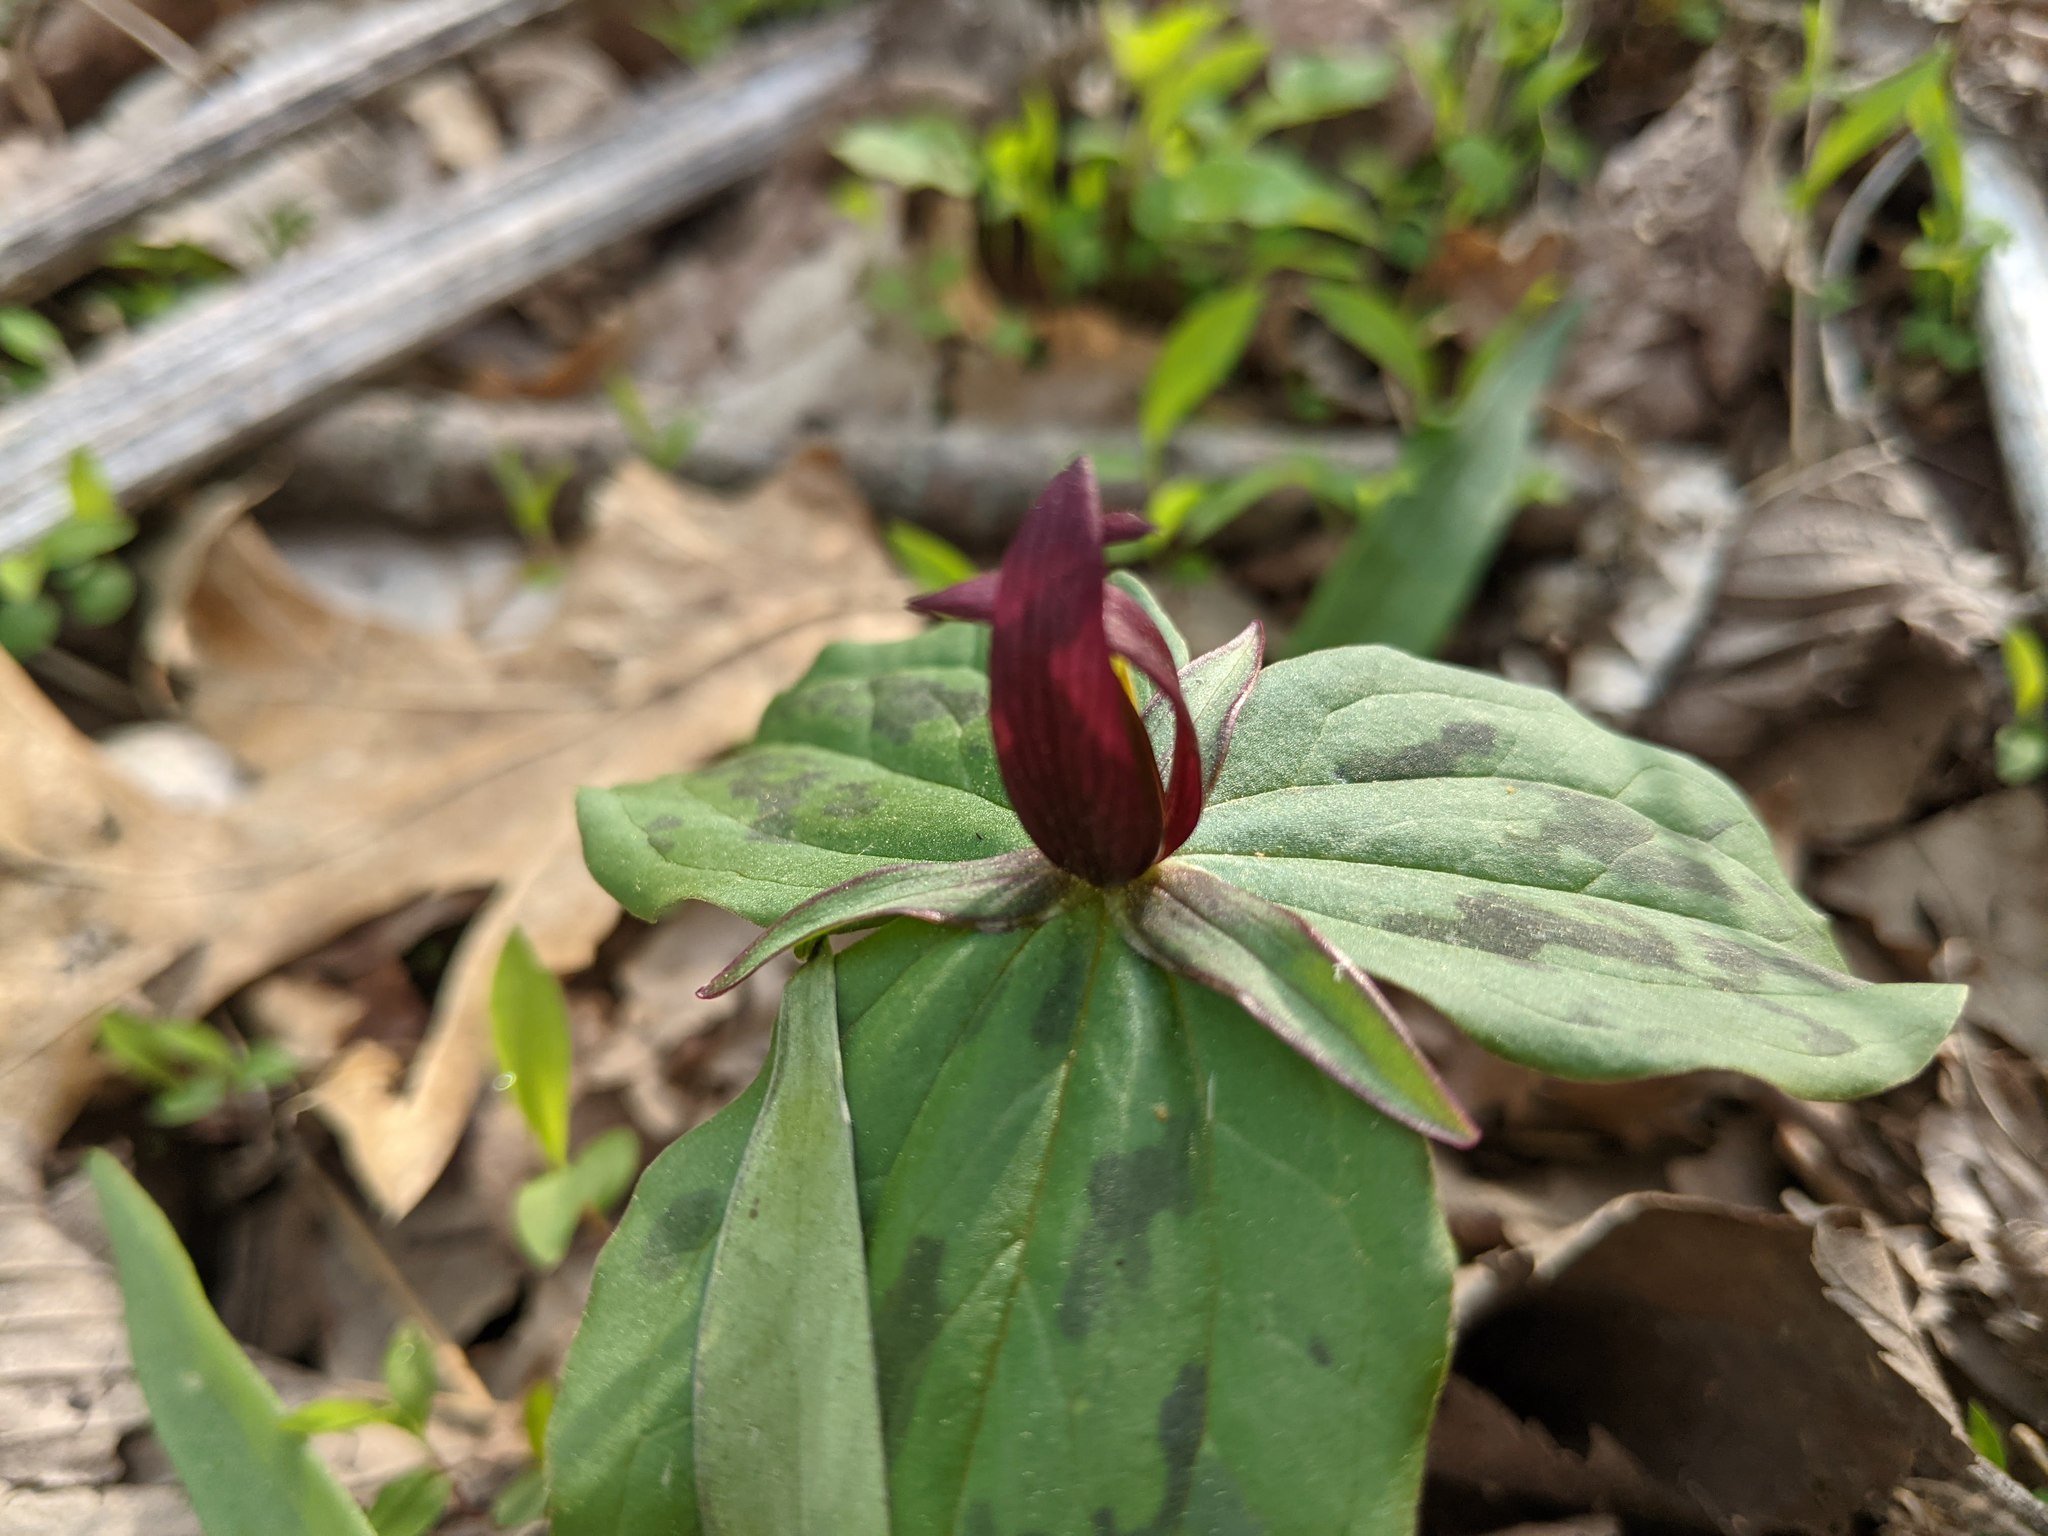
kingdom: Plantae
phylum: Tracheophyta
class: Liliopsida
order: Liliales
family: Melanthiaceae
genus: Trillium
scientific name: Trillium sessile
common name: Sessile trillium
